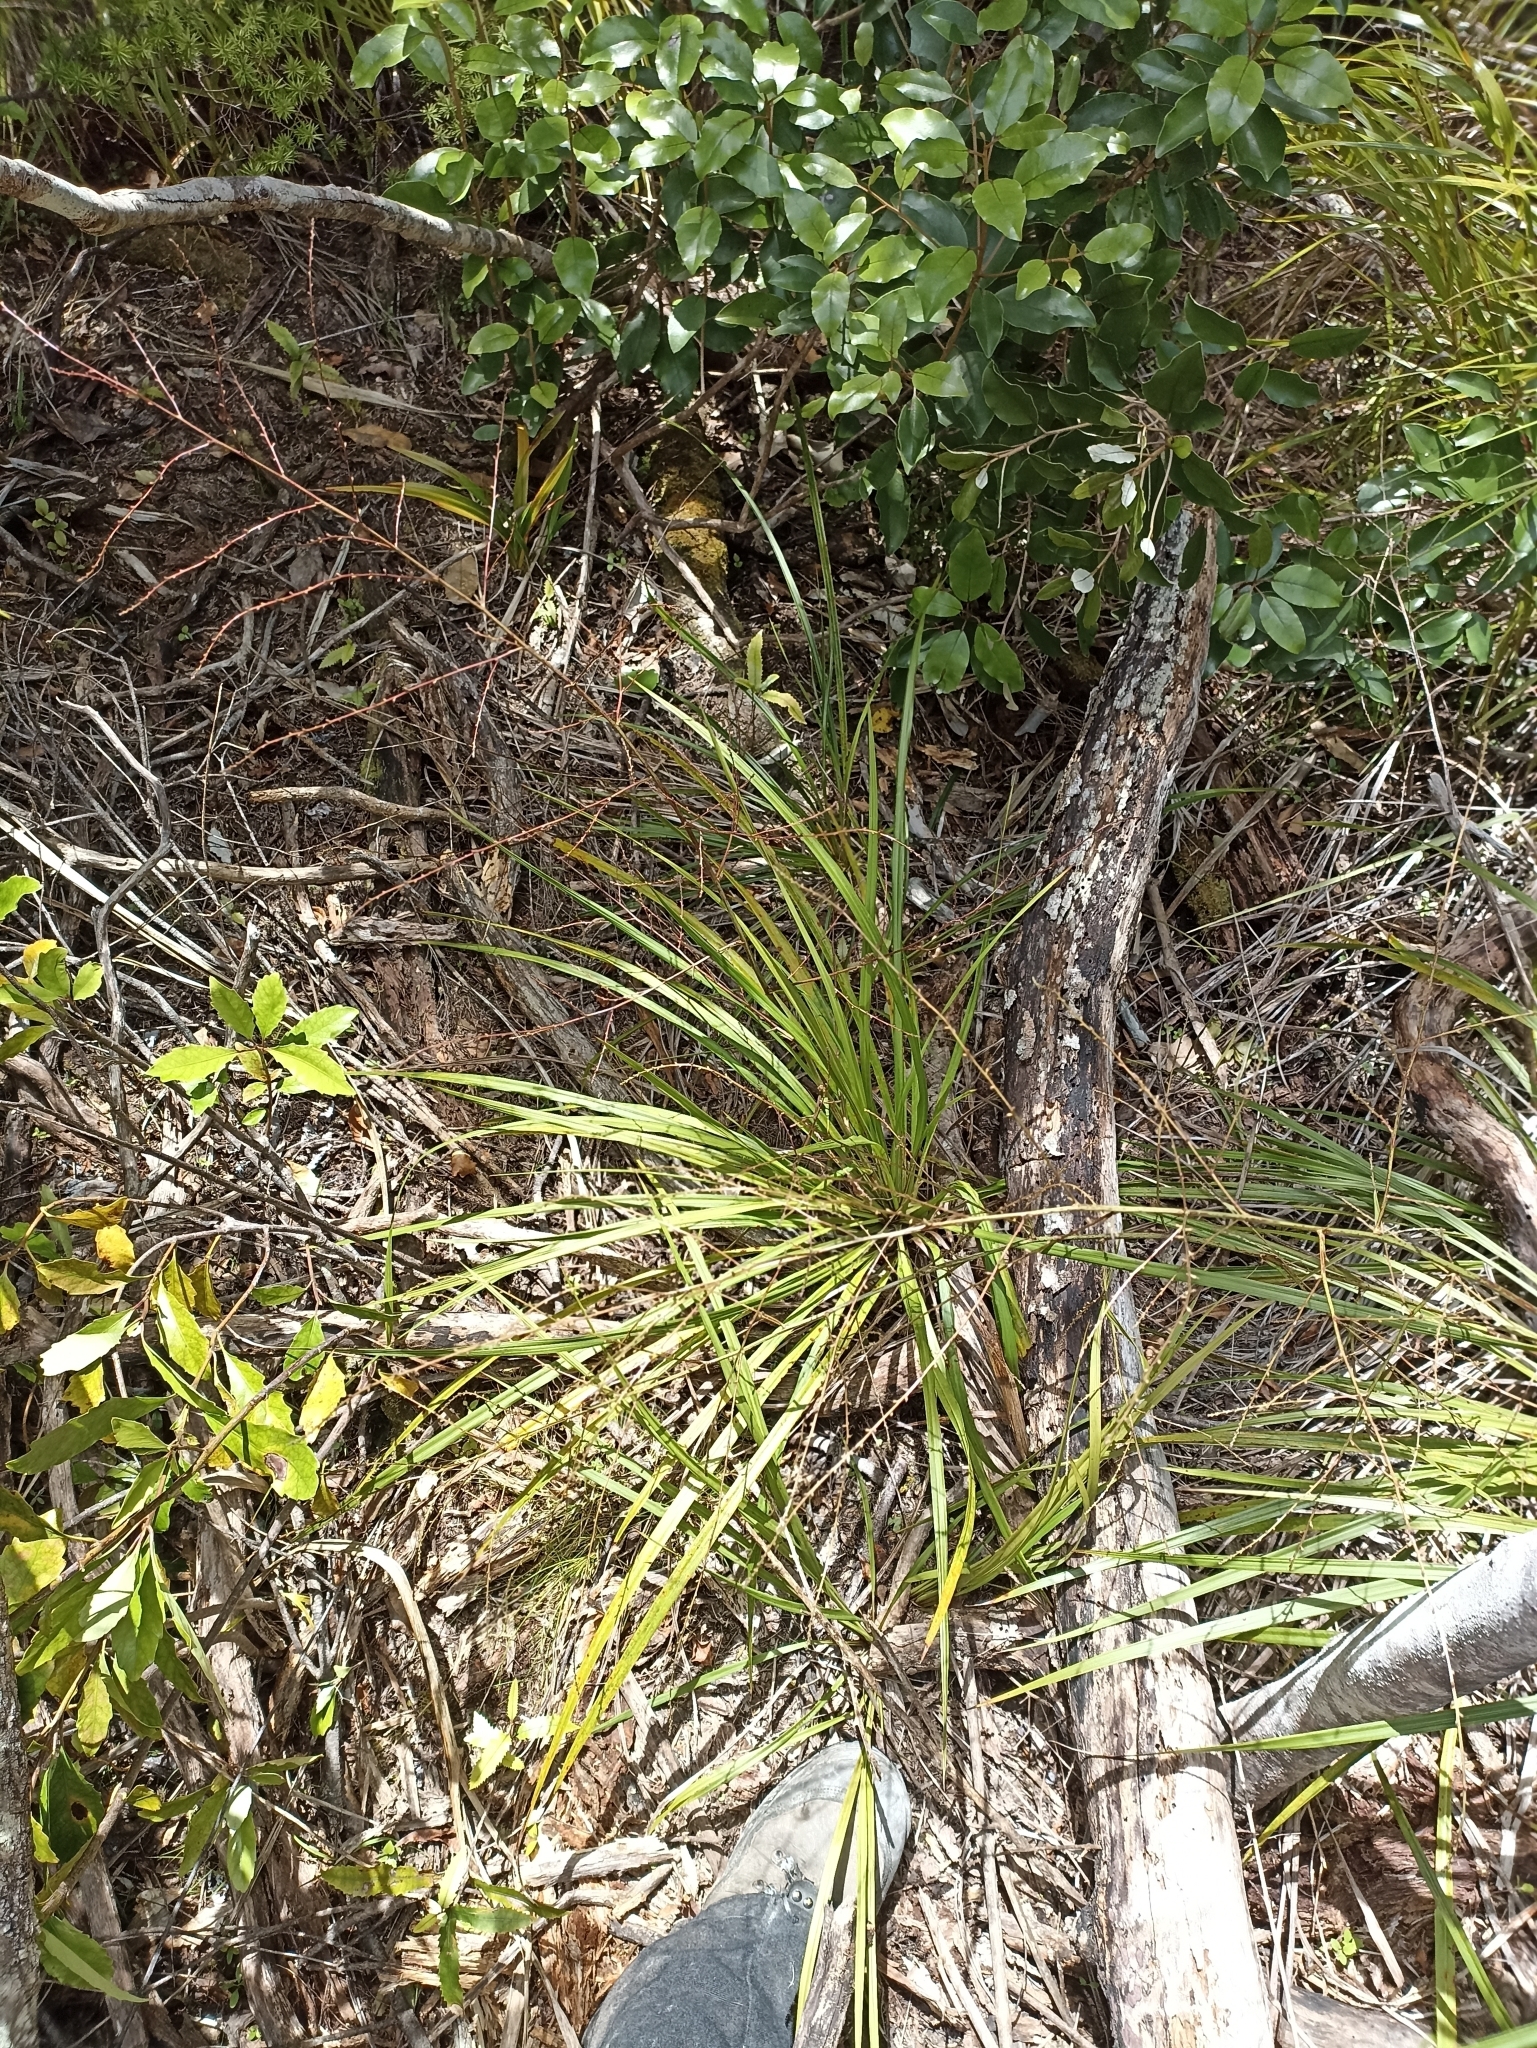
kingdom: Plantae
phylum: Tracheophyta
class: Liliopsida
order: Asparagales
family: Asparagaceae
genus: Cordyline
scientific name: Cordyline pumilio
